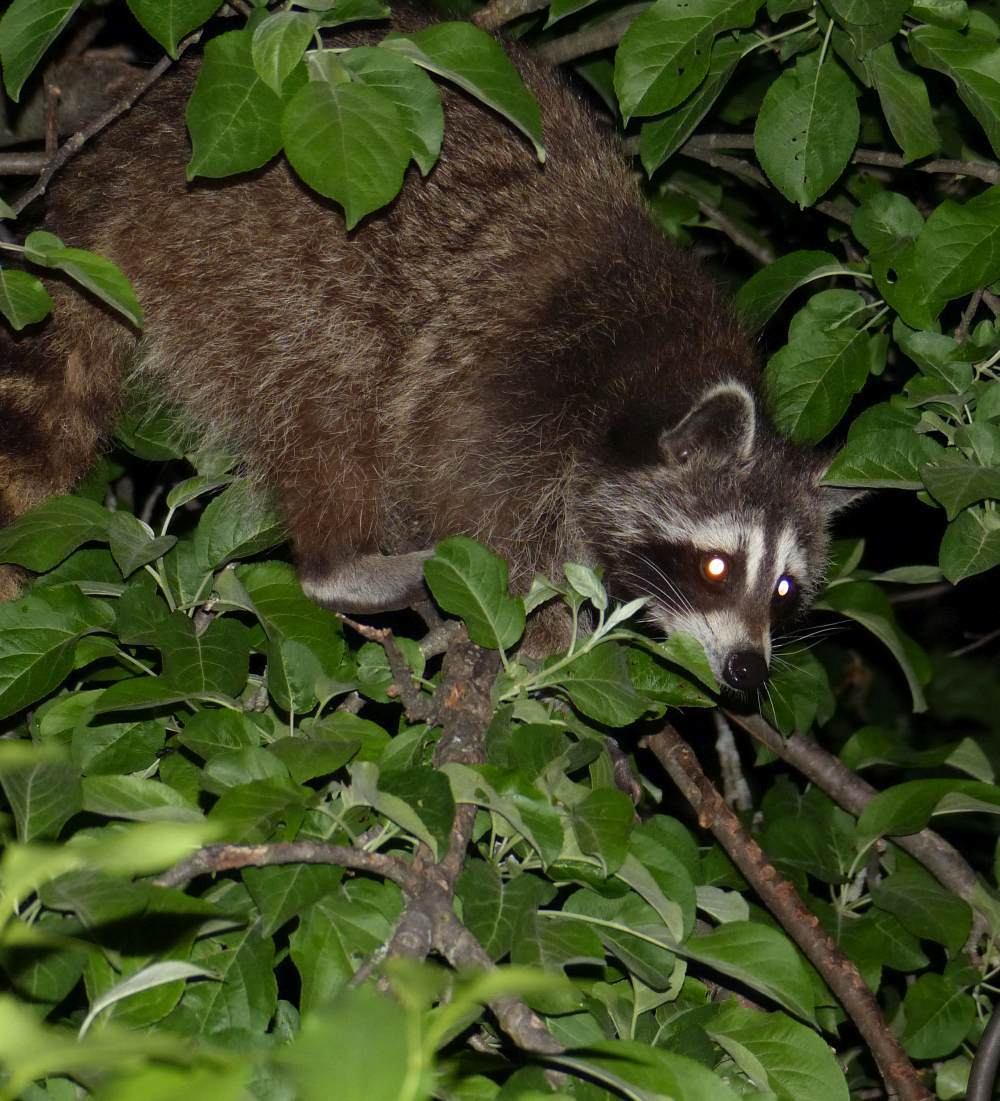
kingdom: Animalia
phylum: Chordata
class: Mammalia
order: Carnivora
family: Procyonidae
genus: Procyon
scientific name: Procyon lotor
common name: Raccoon
